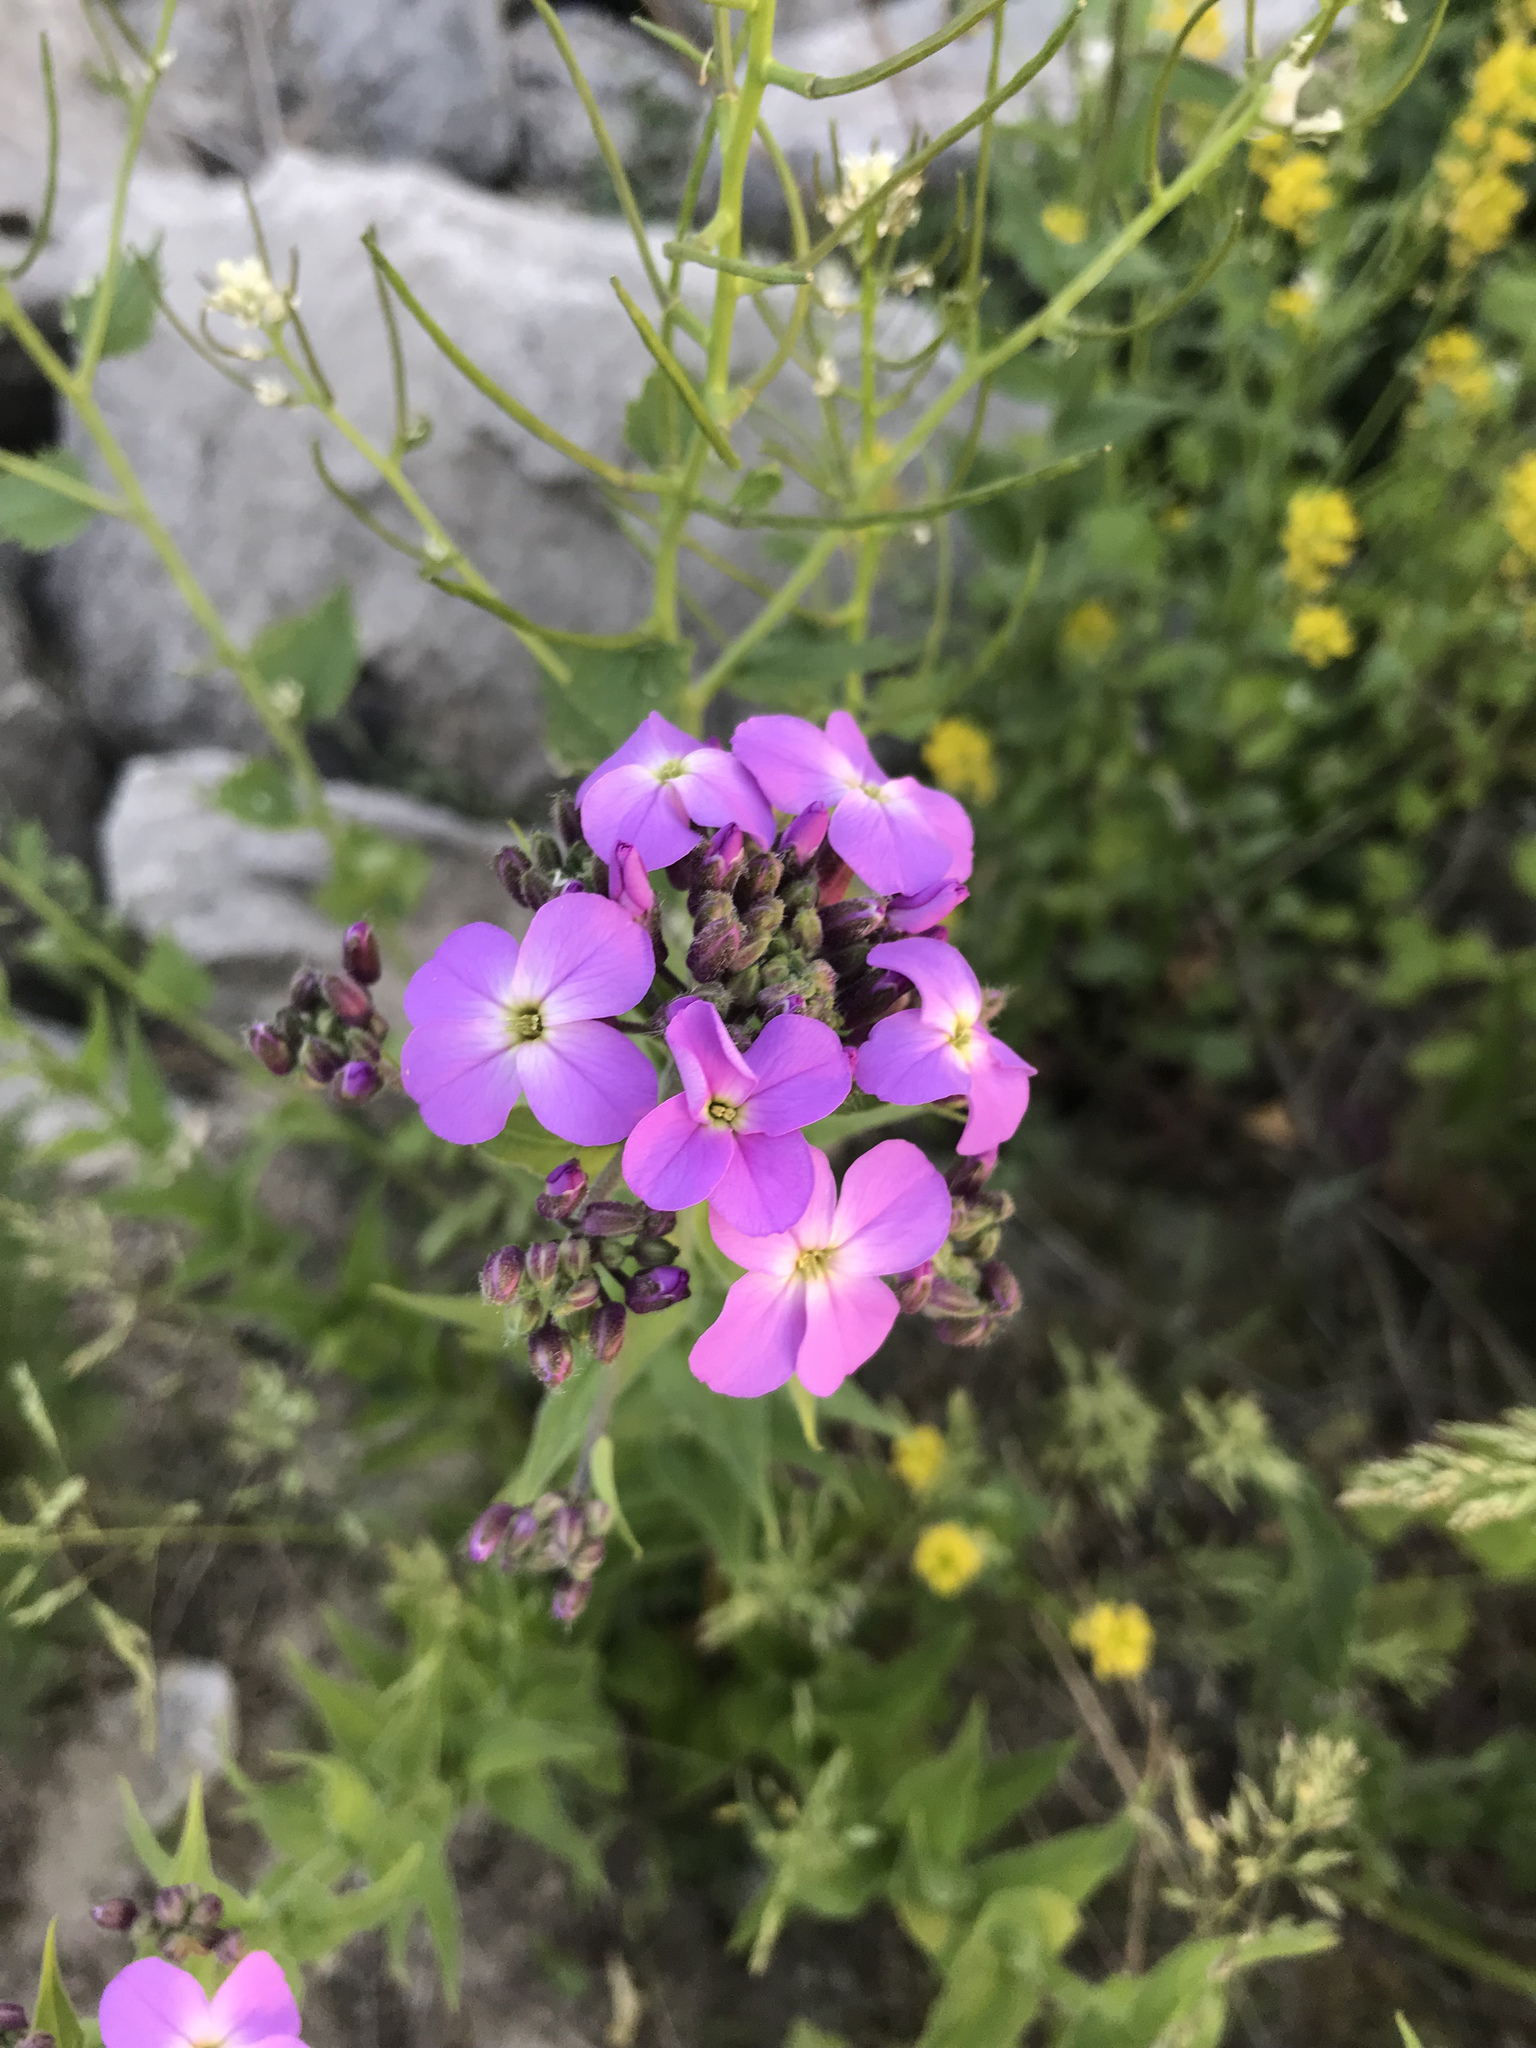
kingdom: Plantae
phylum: Tracheophyta
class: Magnoliopsida
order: Brassicales
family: Brassicaceae
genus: Hesperis
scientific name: Hesperis matronalis
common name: Dame's-violet
